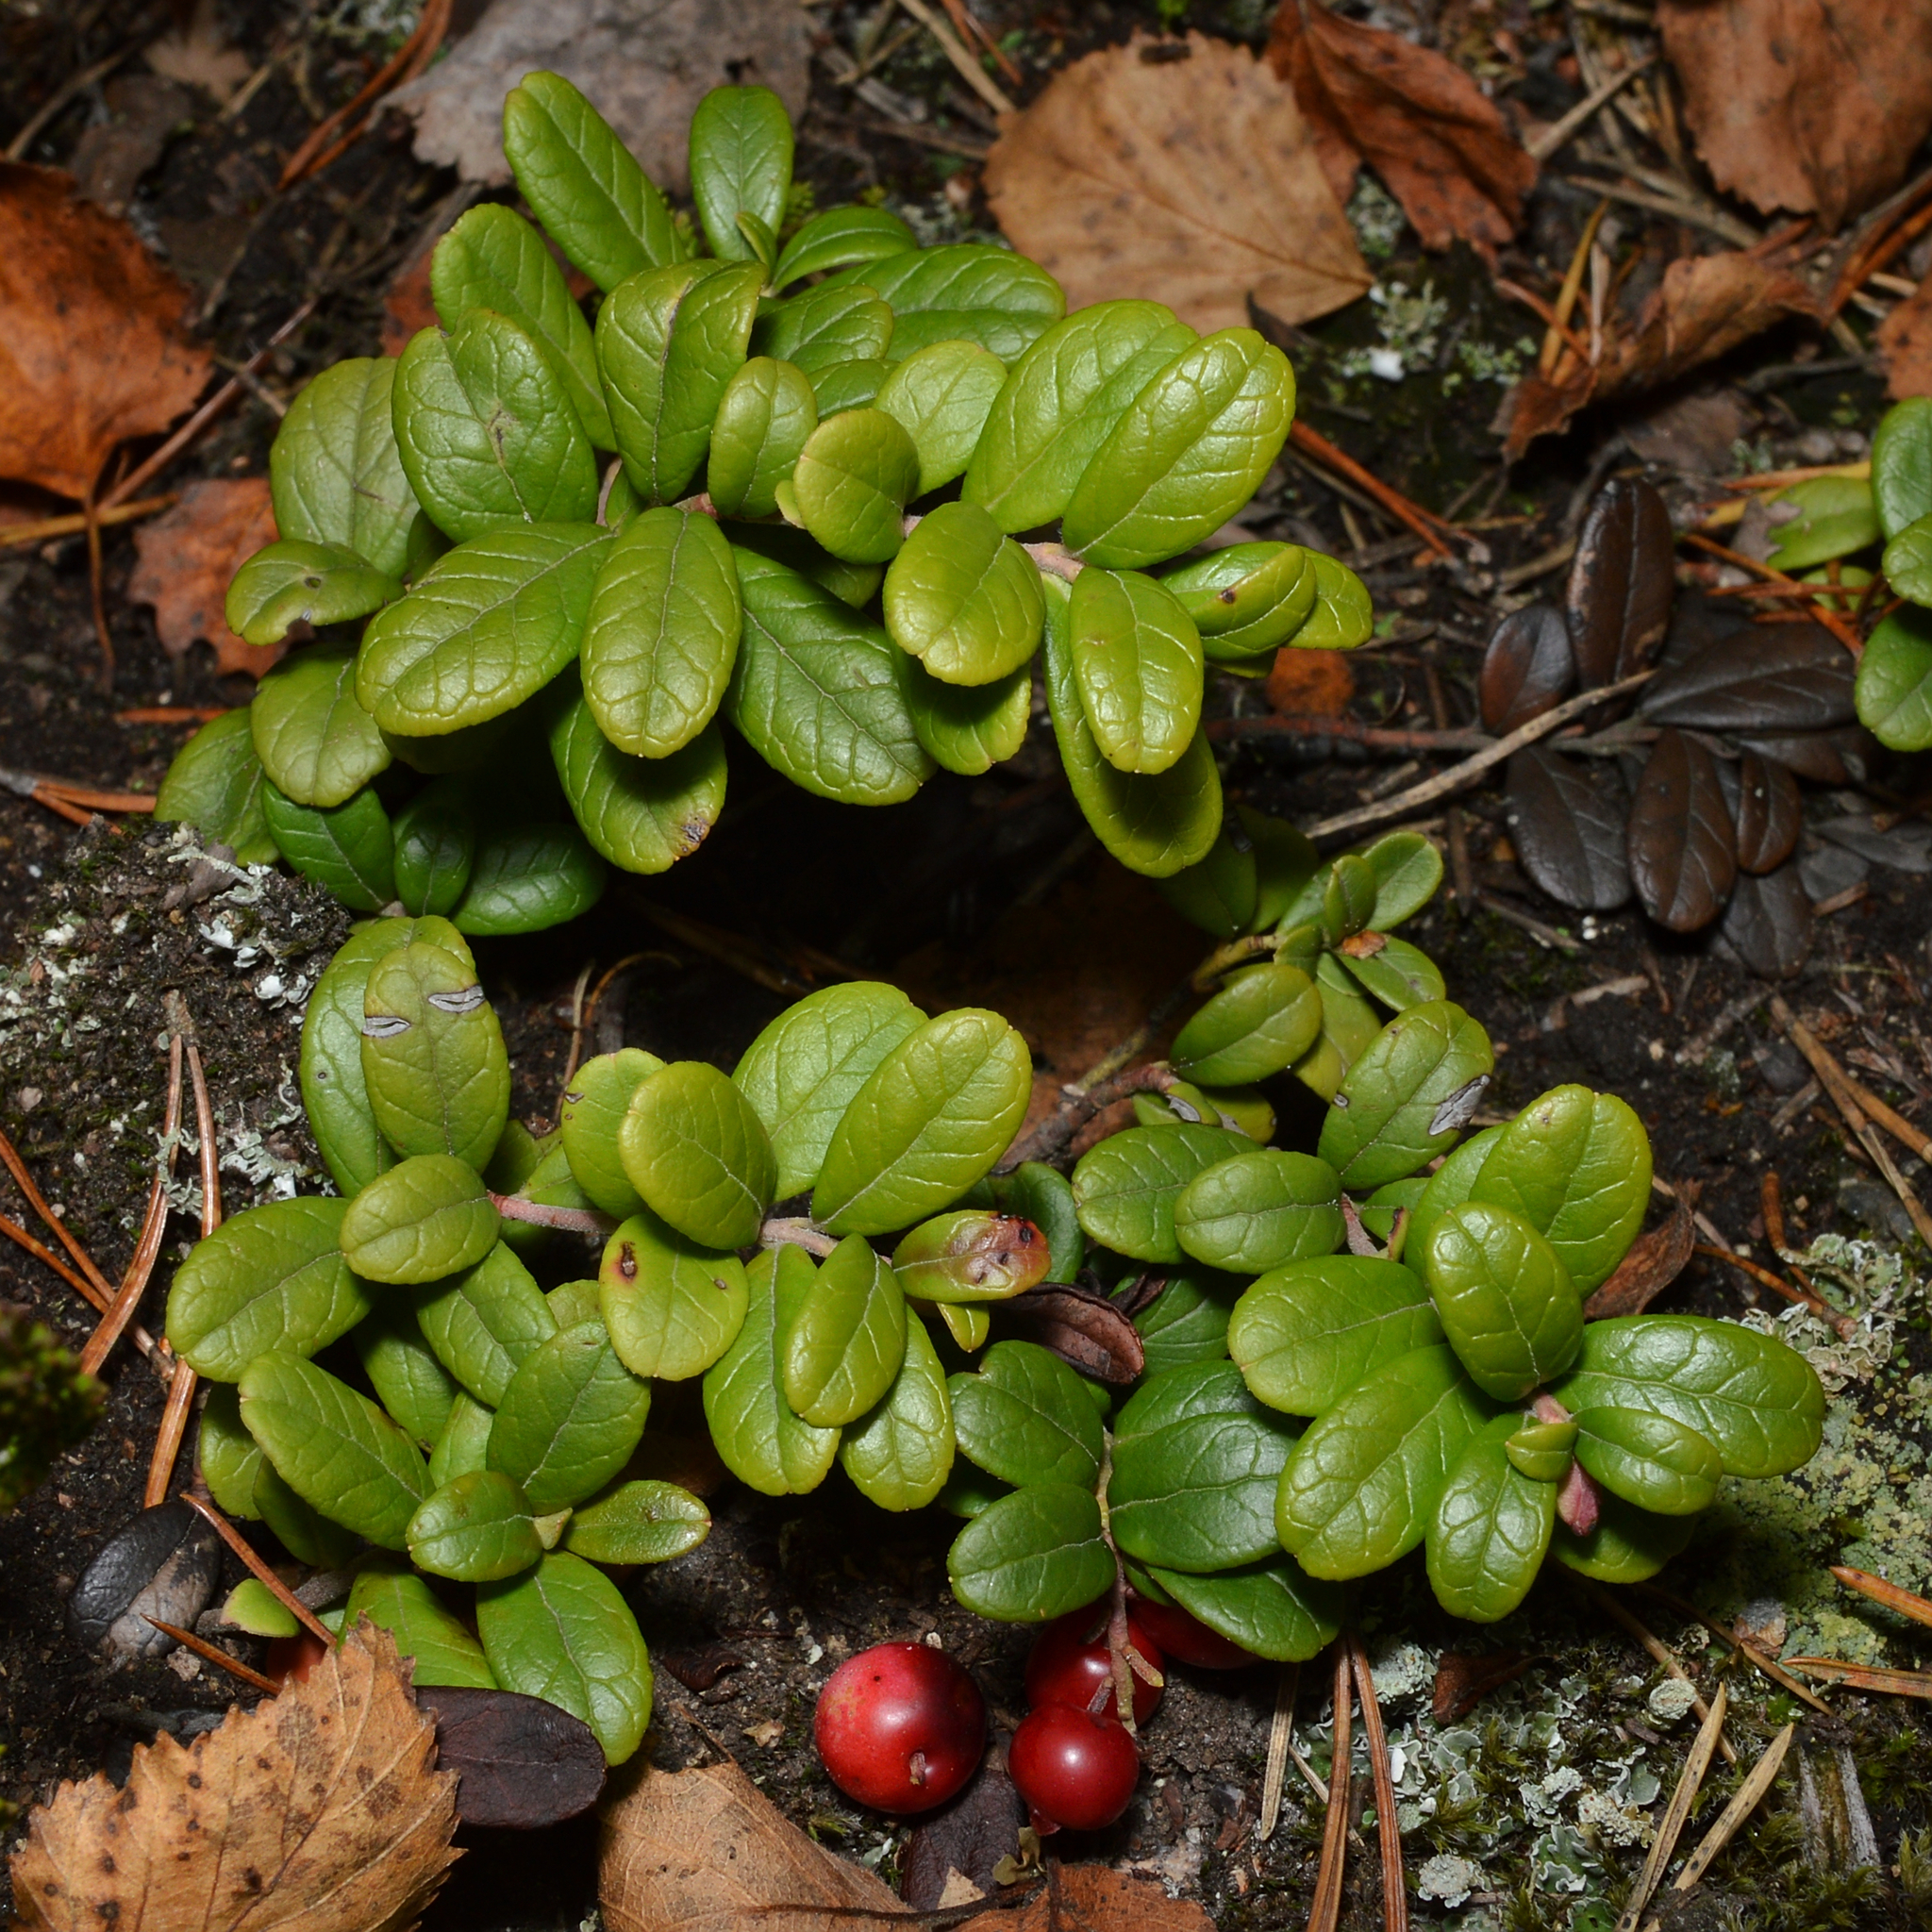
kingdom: Plantae
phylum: Tracheophyta
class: Magnoliopsida
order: Ericales
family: Ericaceae
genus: Vaccinium
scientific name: Vaccinium vitis-idaea
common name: Cowberry
